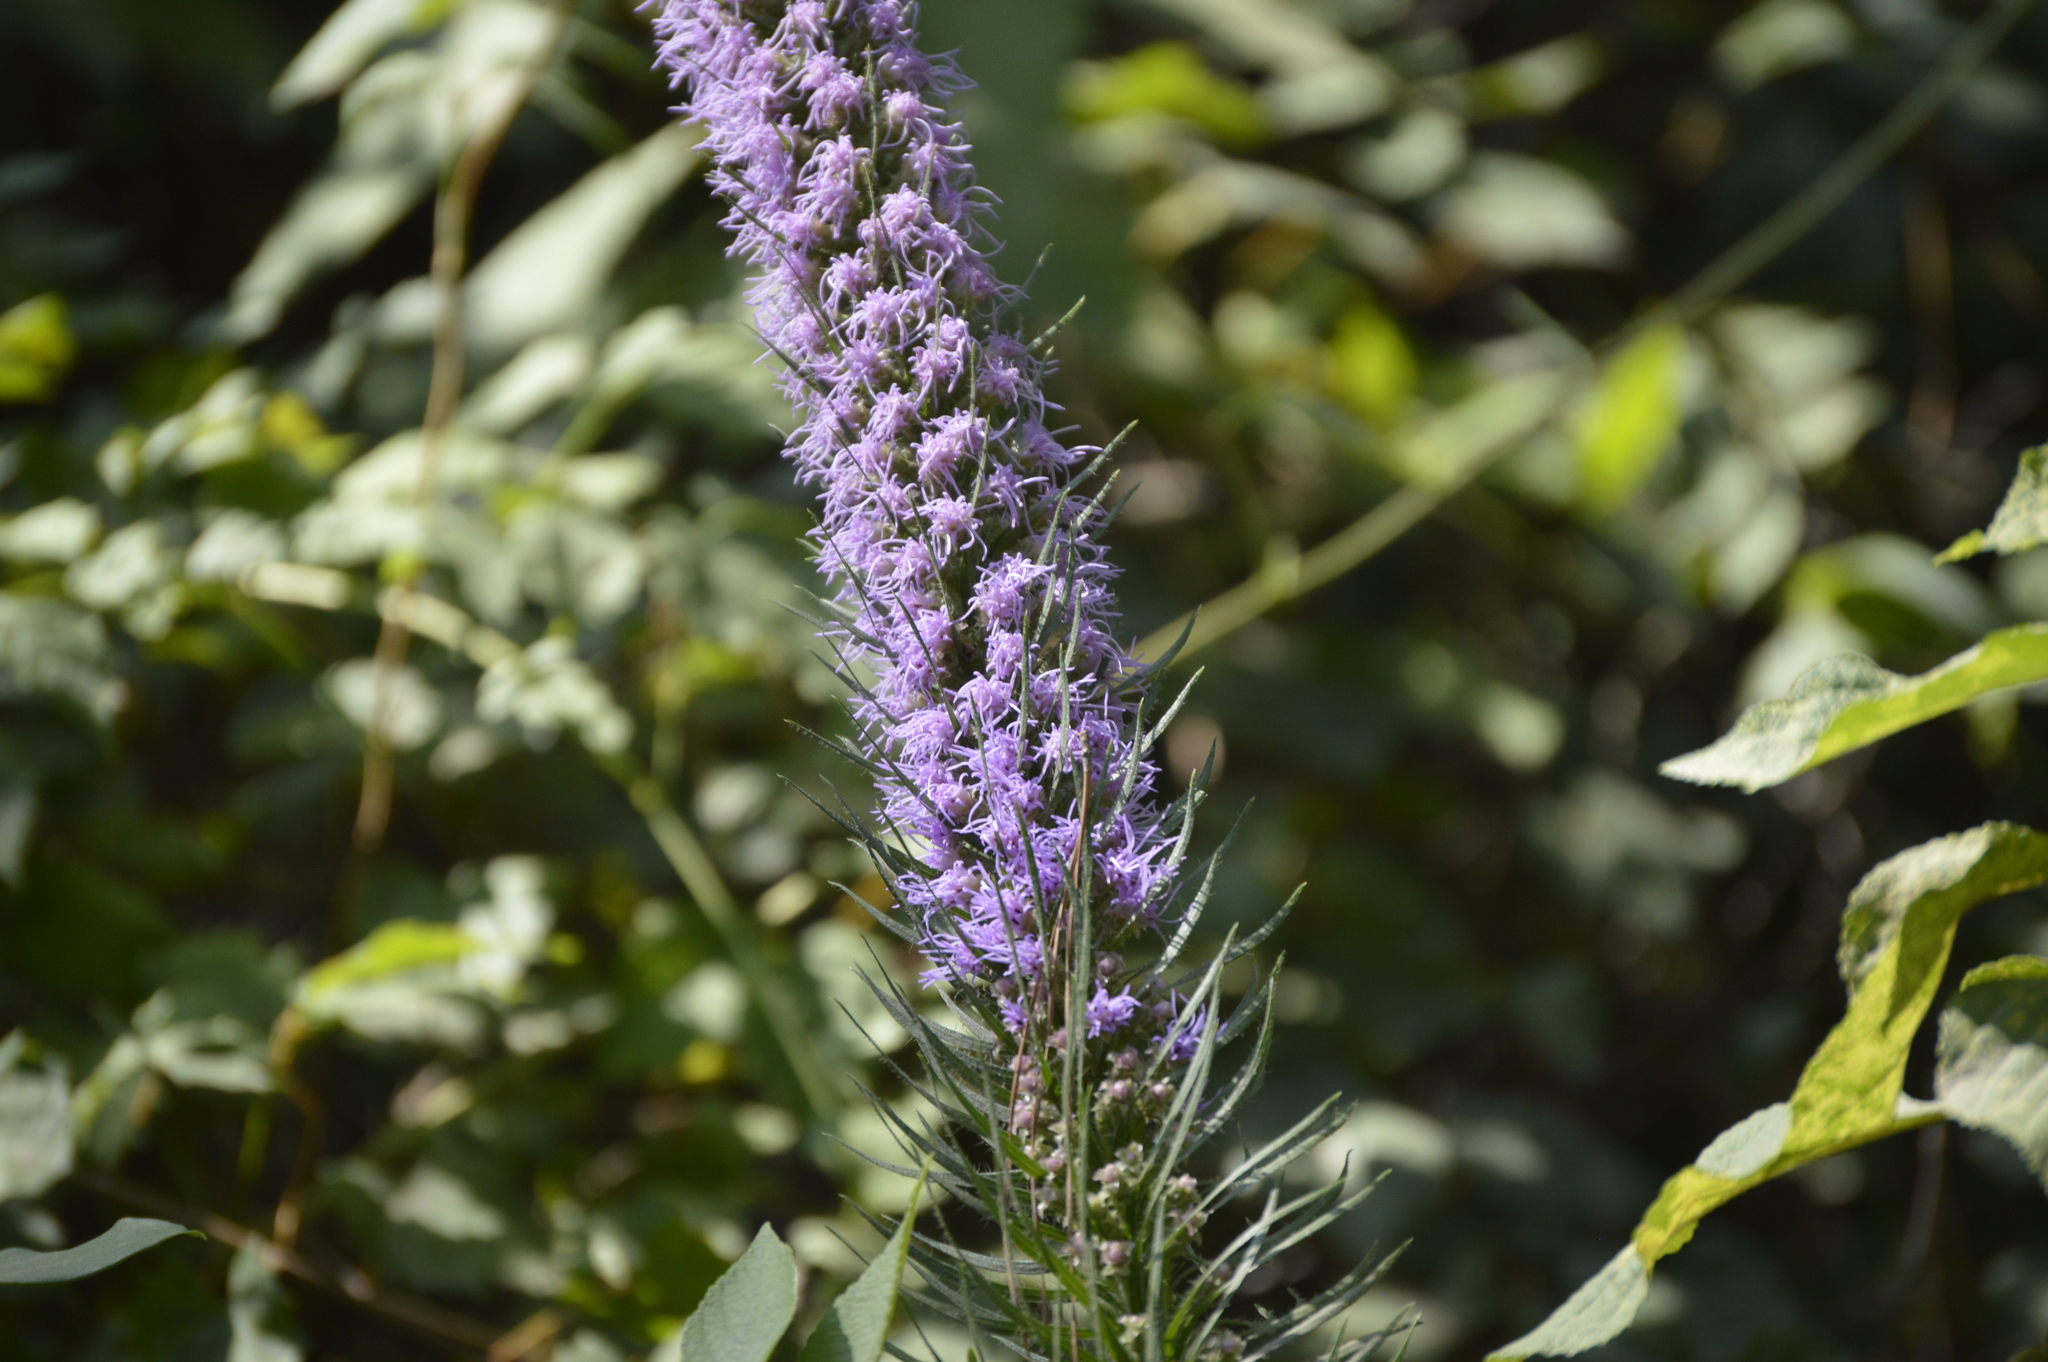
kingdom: Plantae
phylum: Tracheophyta
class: Magnoliopsida
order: Asterales
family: Asteraceae
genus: Liatris
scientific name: Liatris pycnostachya
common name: Cattail gayfeather
